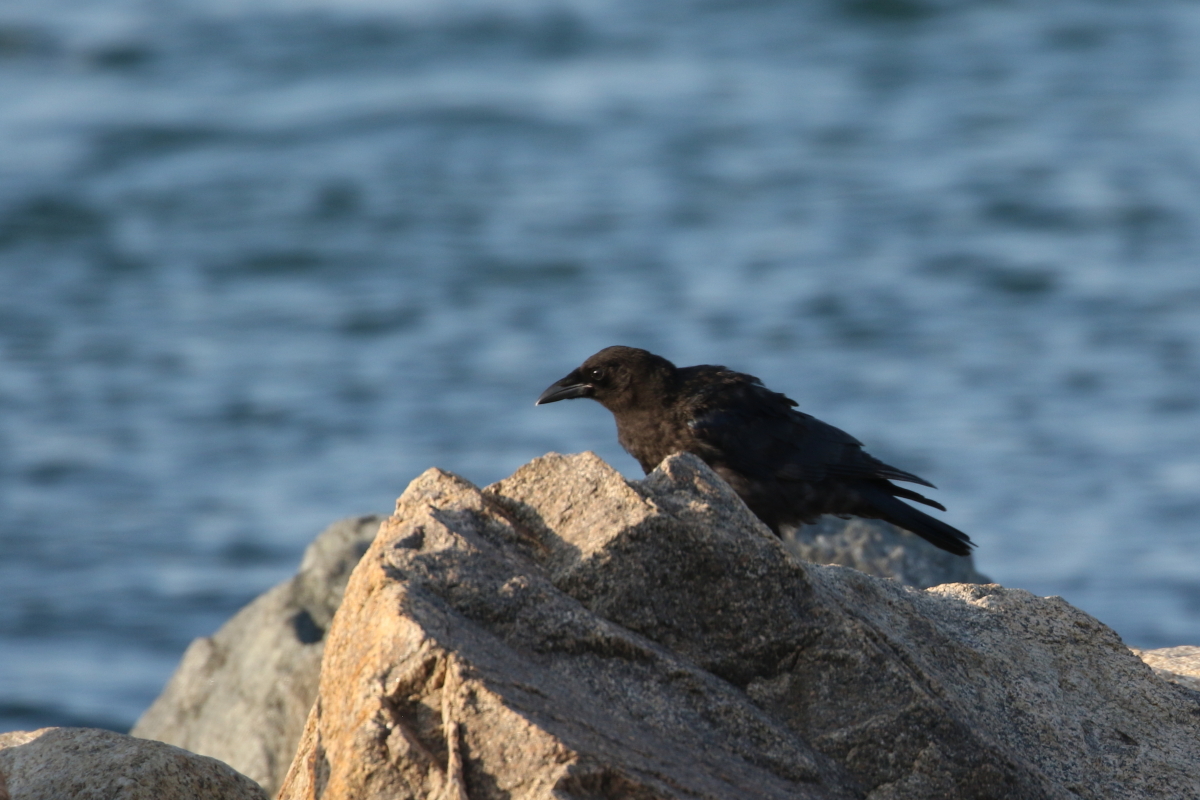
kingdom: Animalia
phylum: Chordata
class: Aves
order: Passeriformes
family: Corvidae
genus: Corvus
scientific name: Corvus brachyrhynchos
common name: American crow
